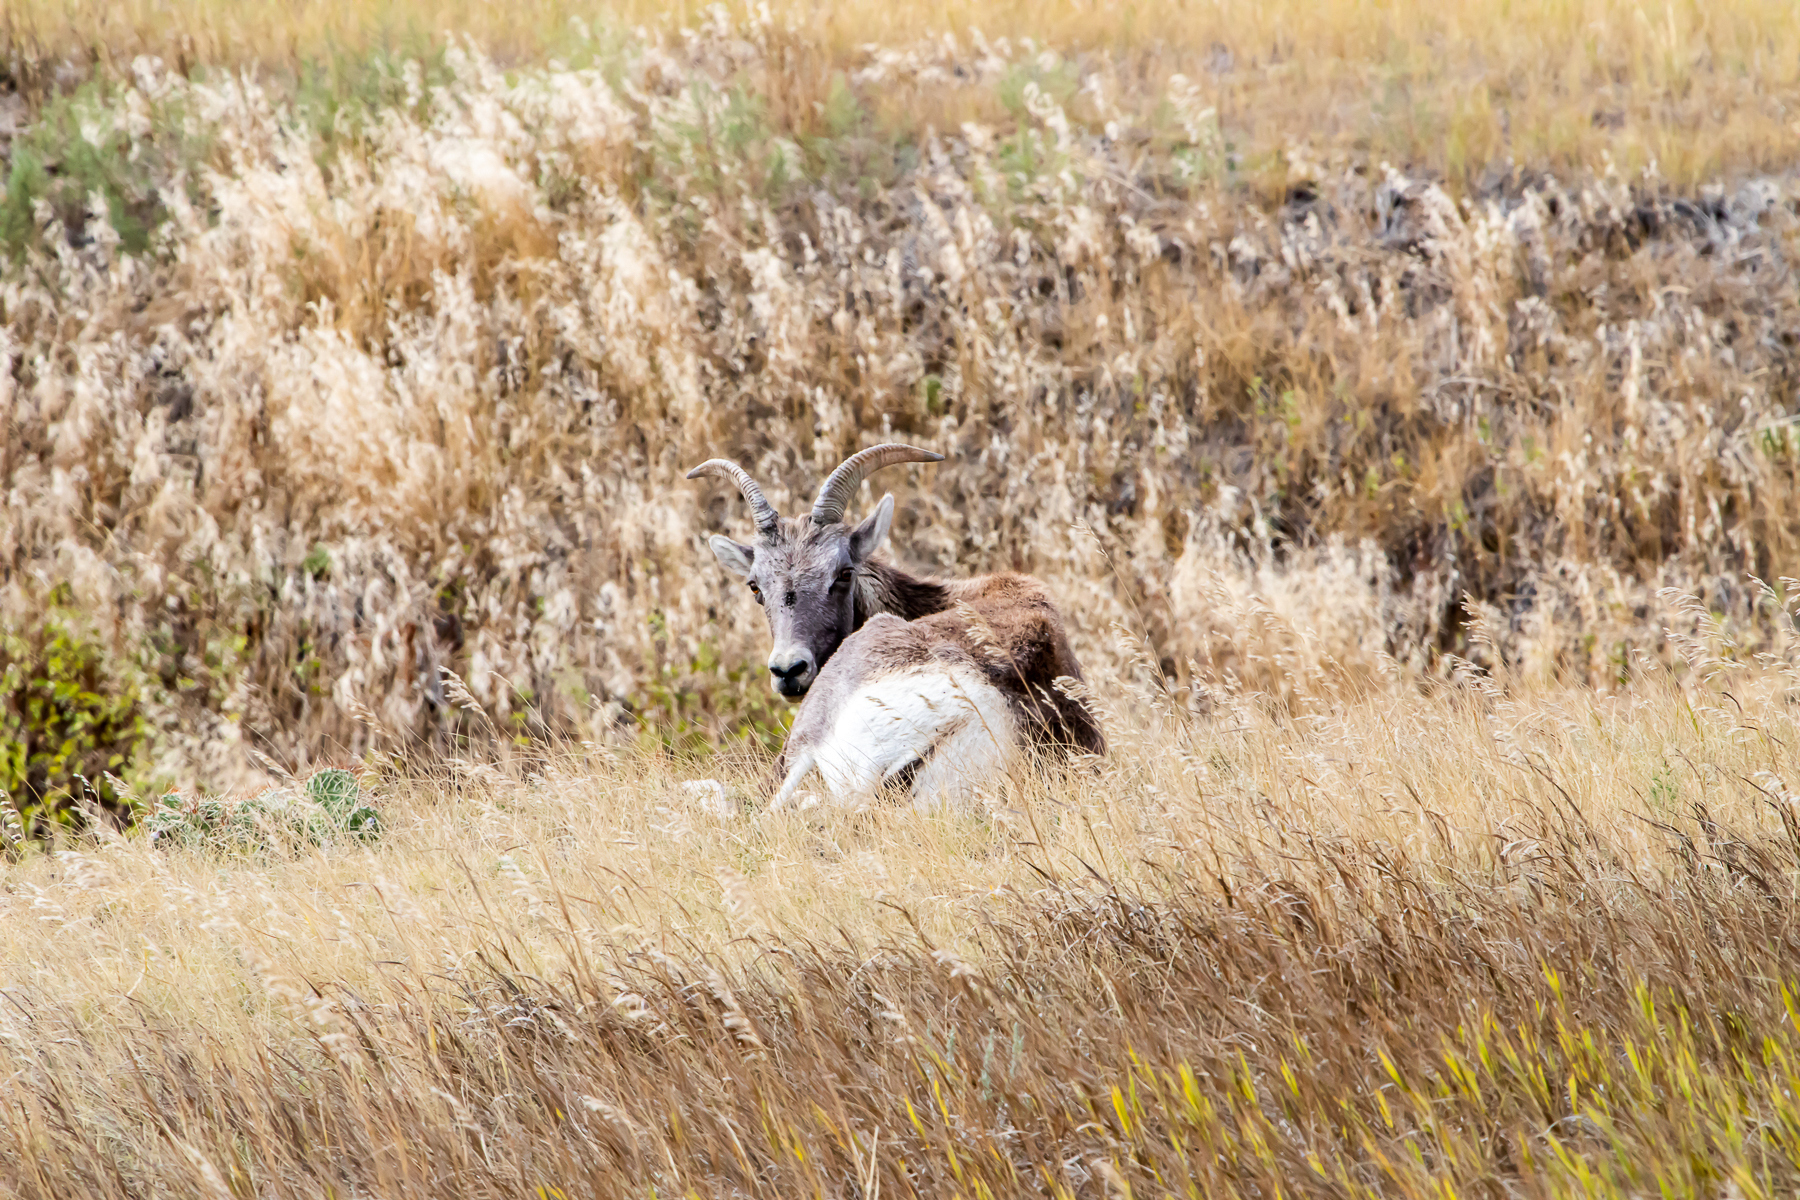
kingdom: Animalia
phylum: Chordata
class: Mammalia
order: Artiodactyla
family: Bovidae
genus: Ovis
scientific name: Ovis canadensis
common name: Bighorn sheep
